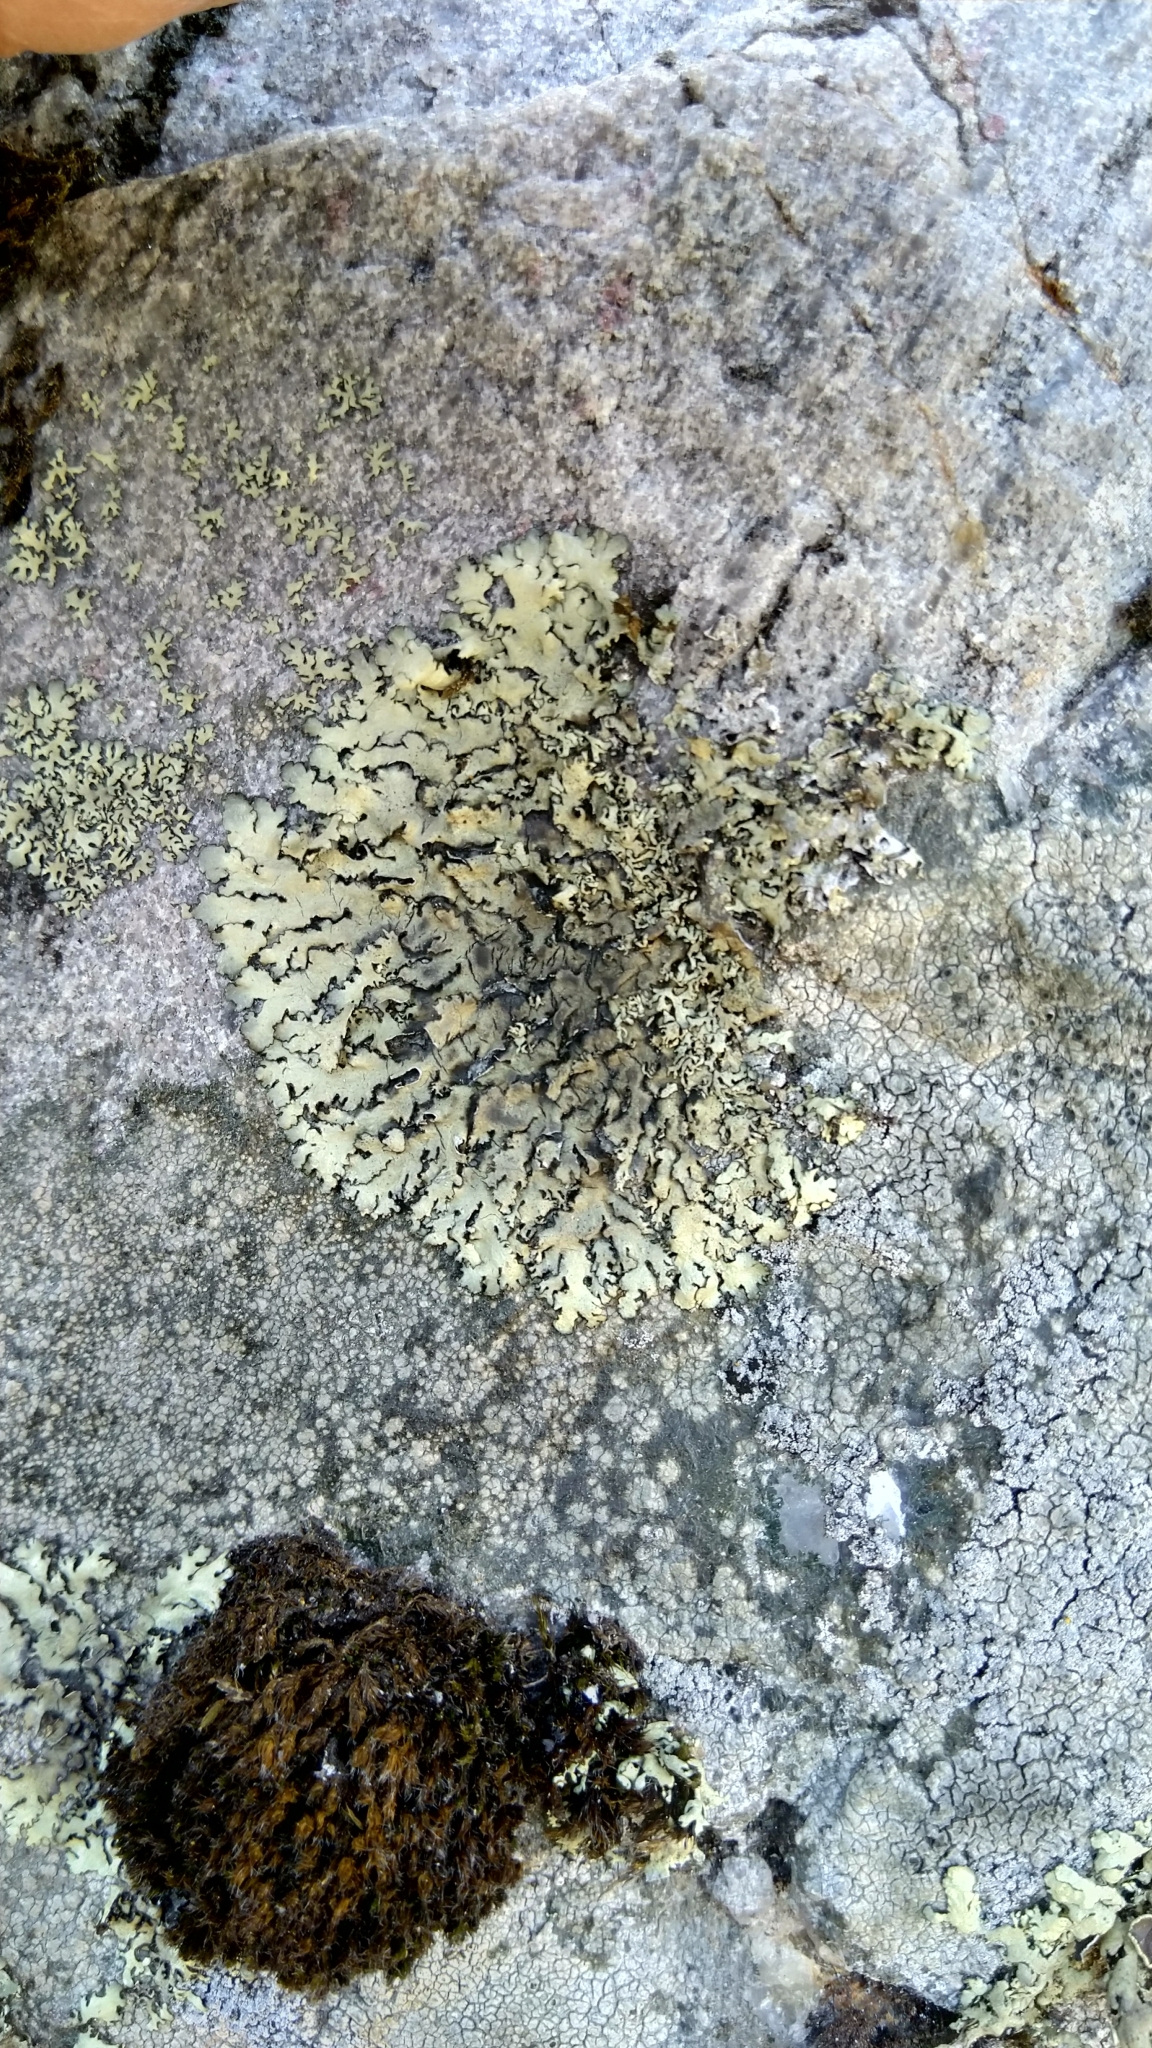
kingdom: Fungi
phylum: Ascomycota
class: Lecanoromycetes
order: Lecanorales
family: Parmeliaceae
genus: Xanthoparmelia
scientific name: Xanthoparmelia stenophylla
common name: Shingled rock shield
